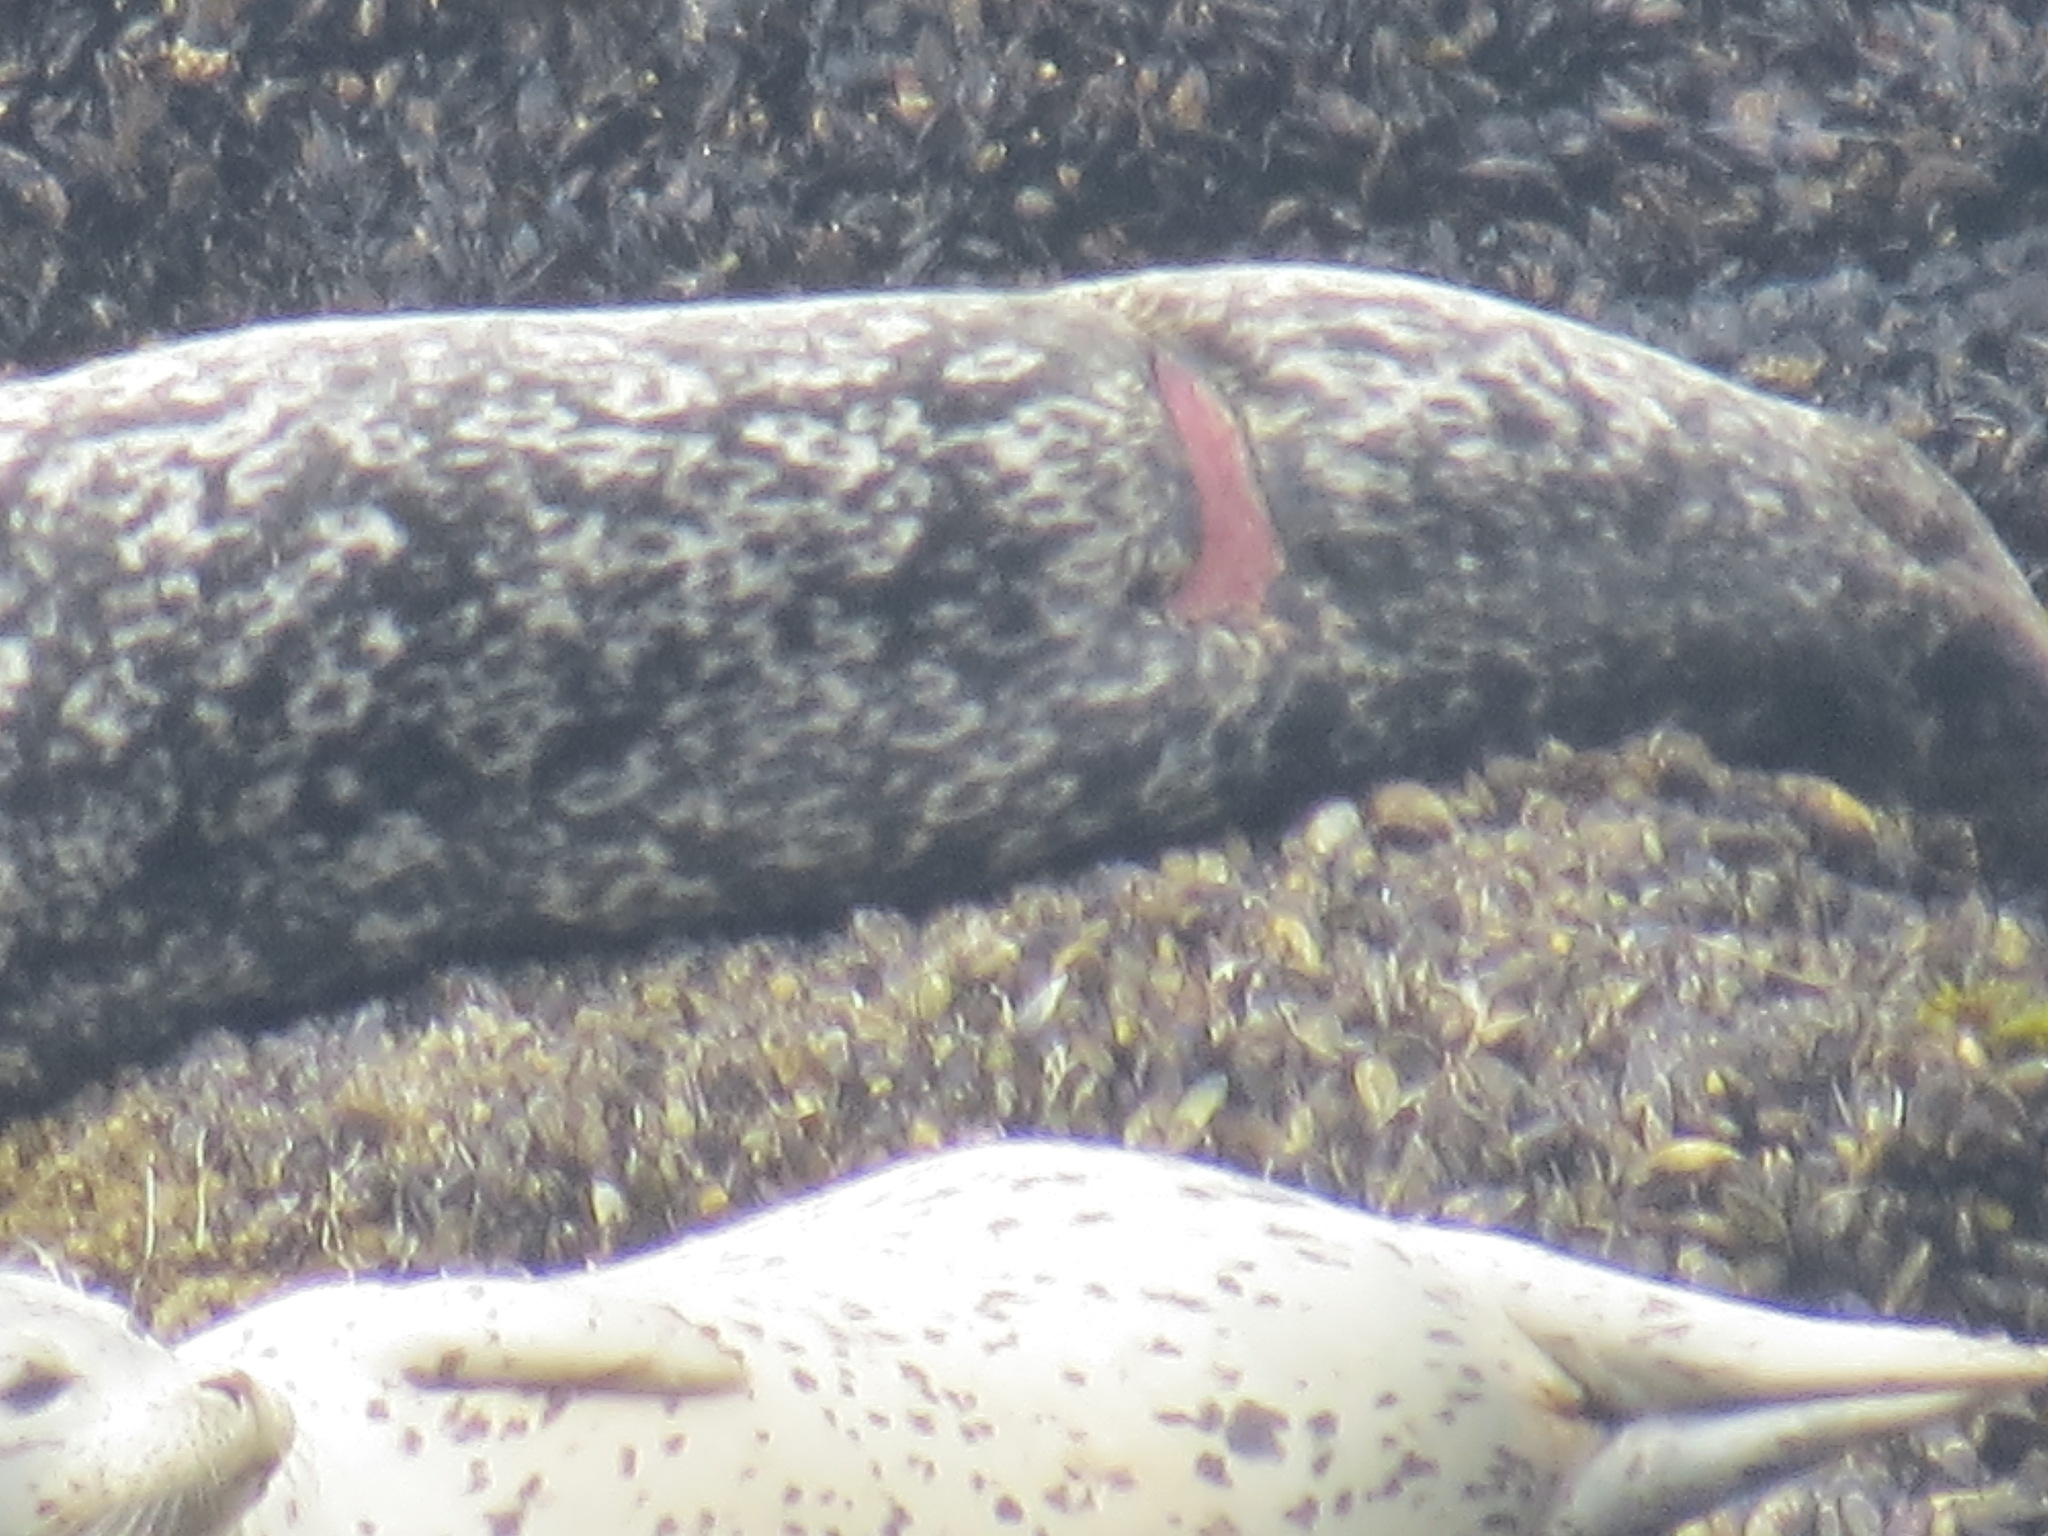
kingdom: Animalia
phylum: Chordata
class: Mammalia
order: Carnivora
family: Phocidae
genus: Phoca
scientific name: Phoca vitulina
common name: Harbor seal
